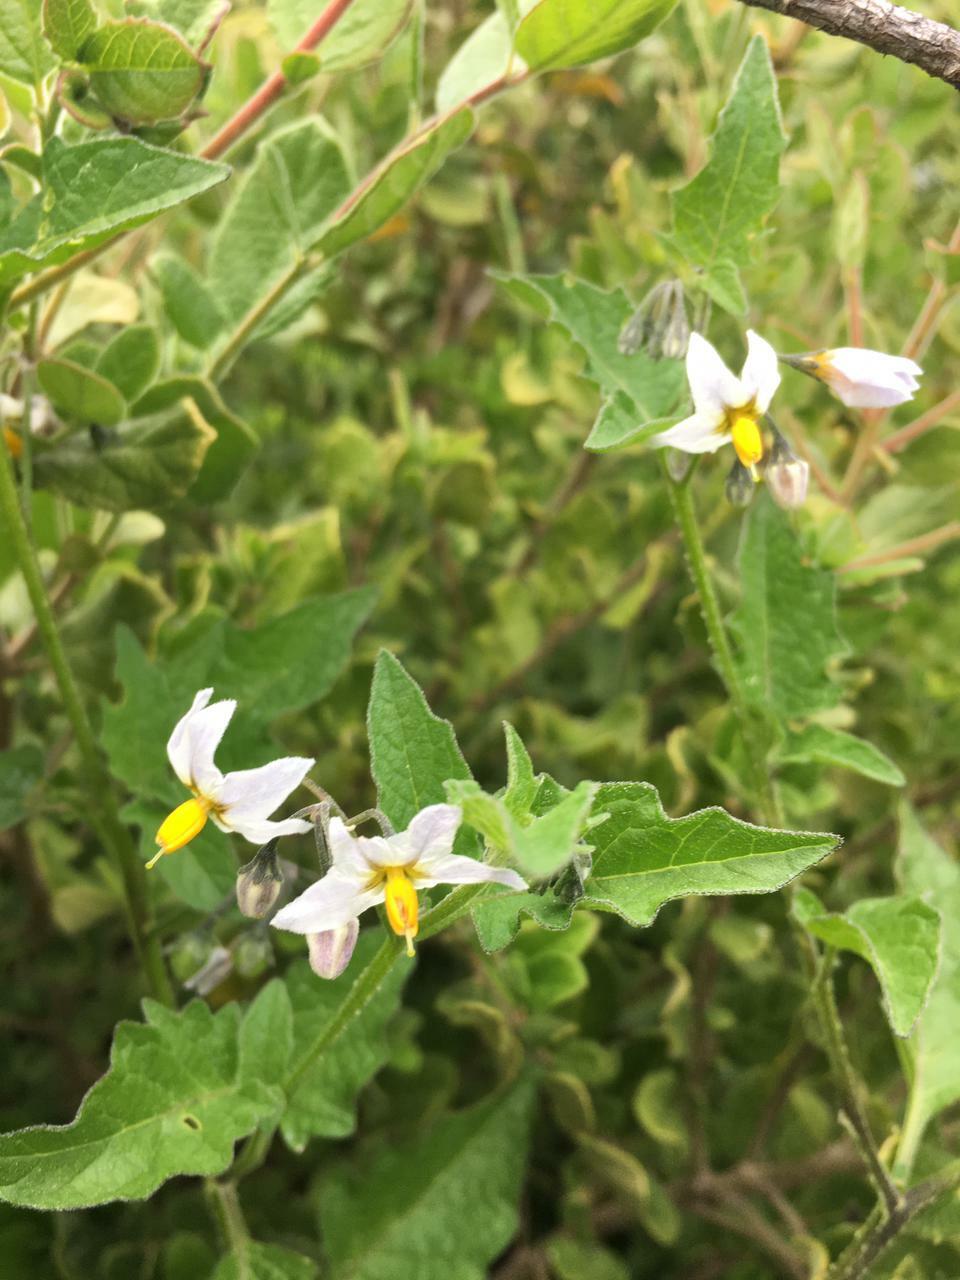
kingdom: Plantae
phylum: Tracheophyta
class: Magnoliopsida
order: Solanales
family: Solanaceae
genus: Solanum
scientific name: Solanum furcatum
